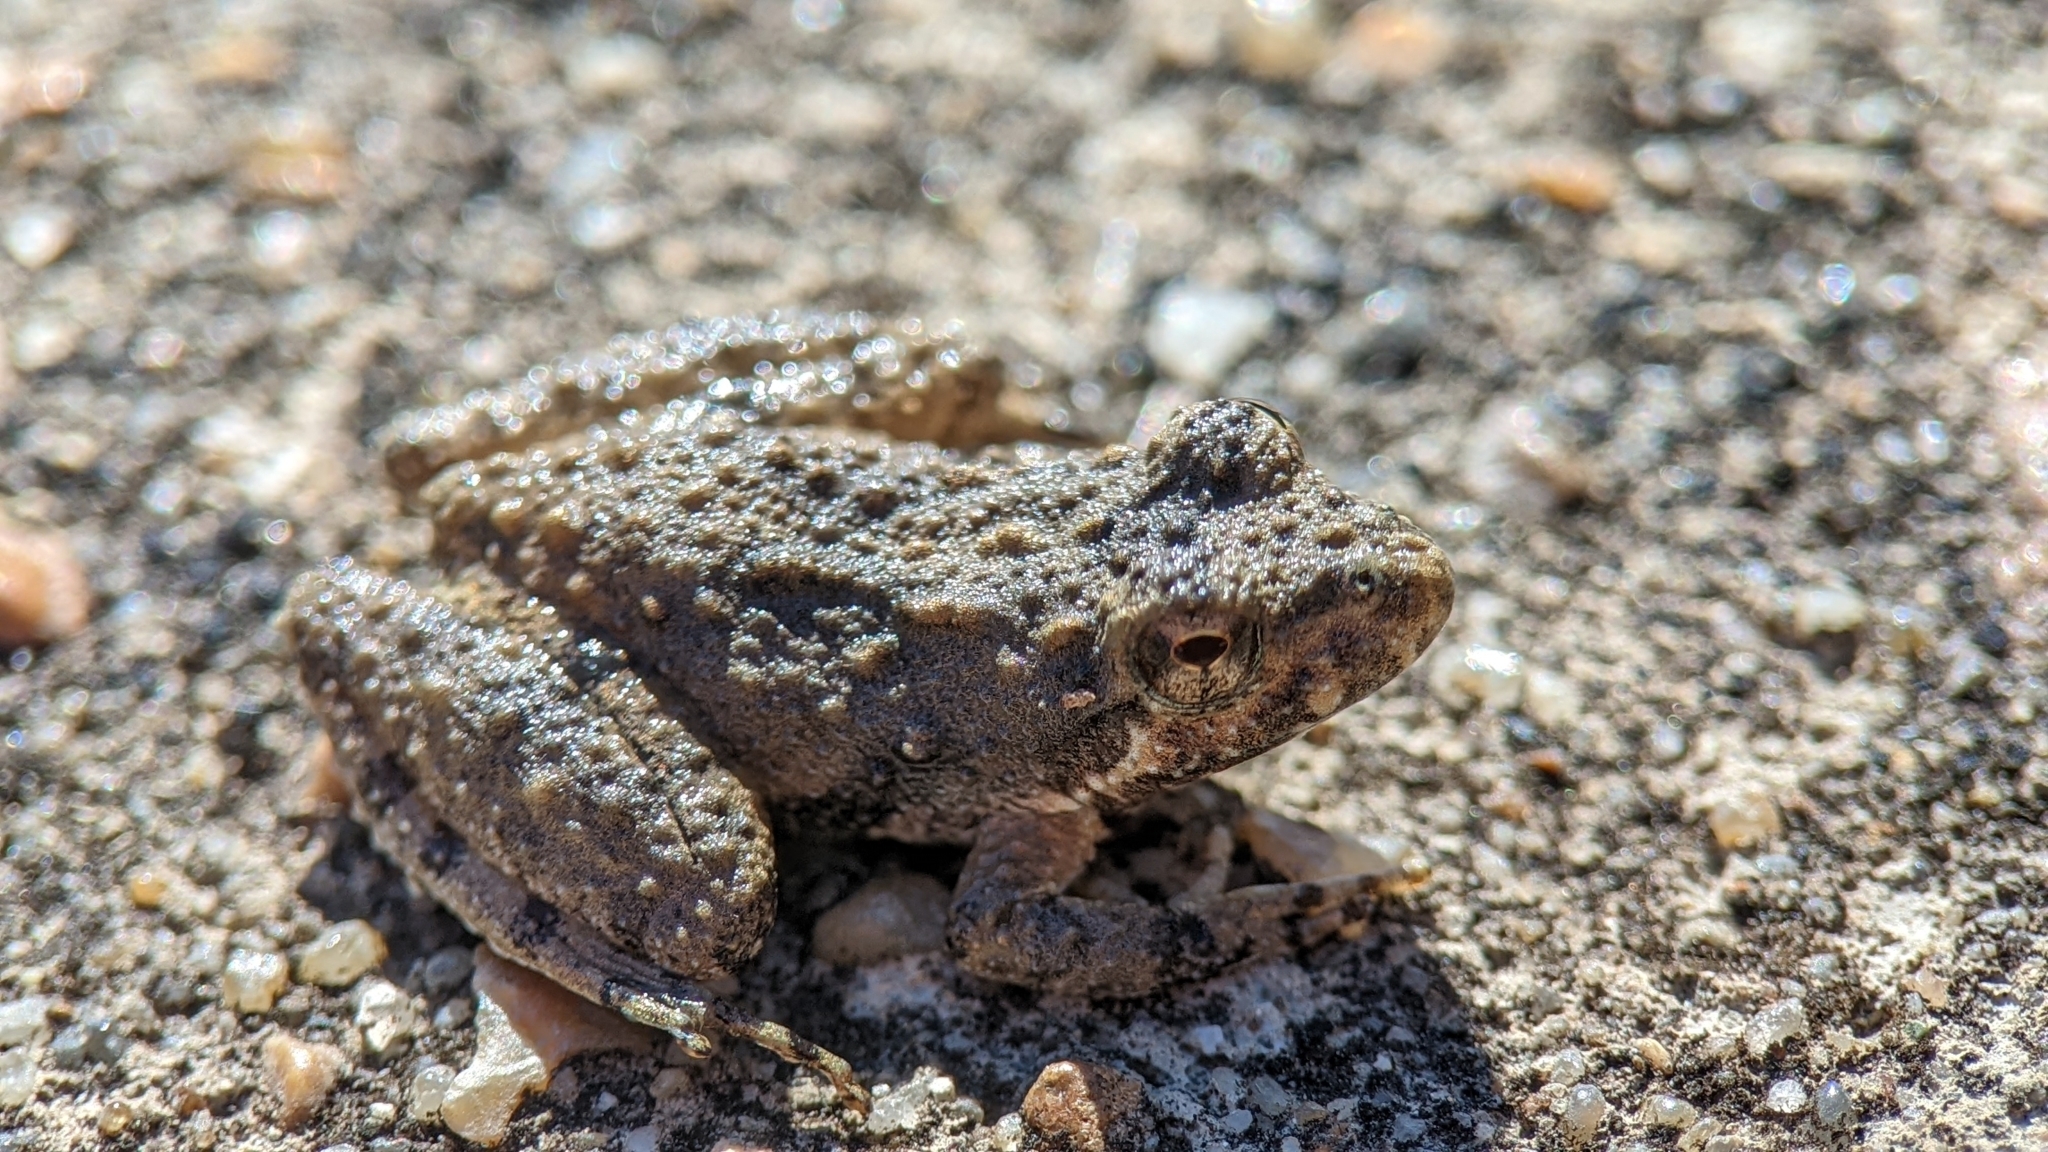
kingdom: Animalia
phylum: Chordata
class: Amphibia
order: Anura
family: Hylidae
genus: Acris
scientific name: Acris blanchardi
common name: Blanchard's cricket frog
